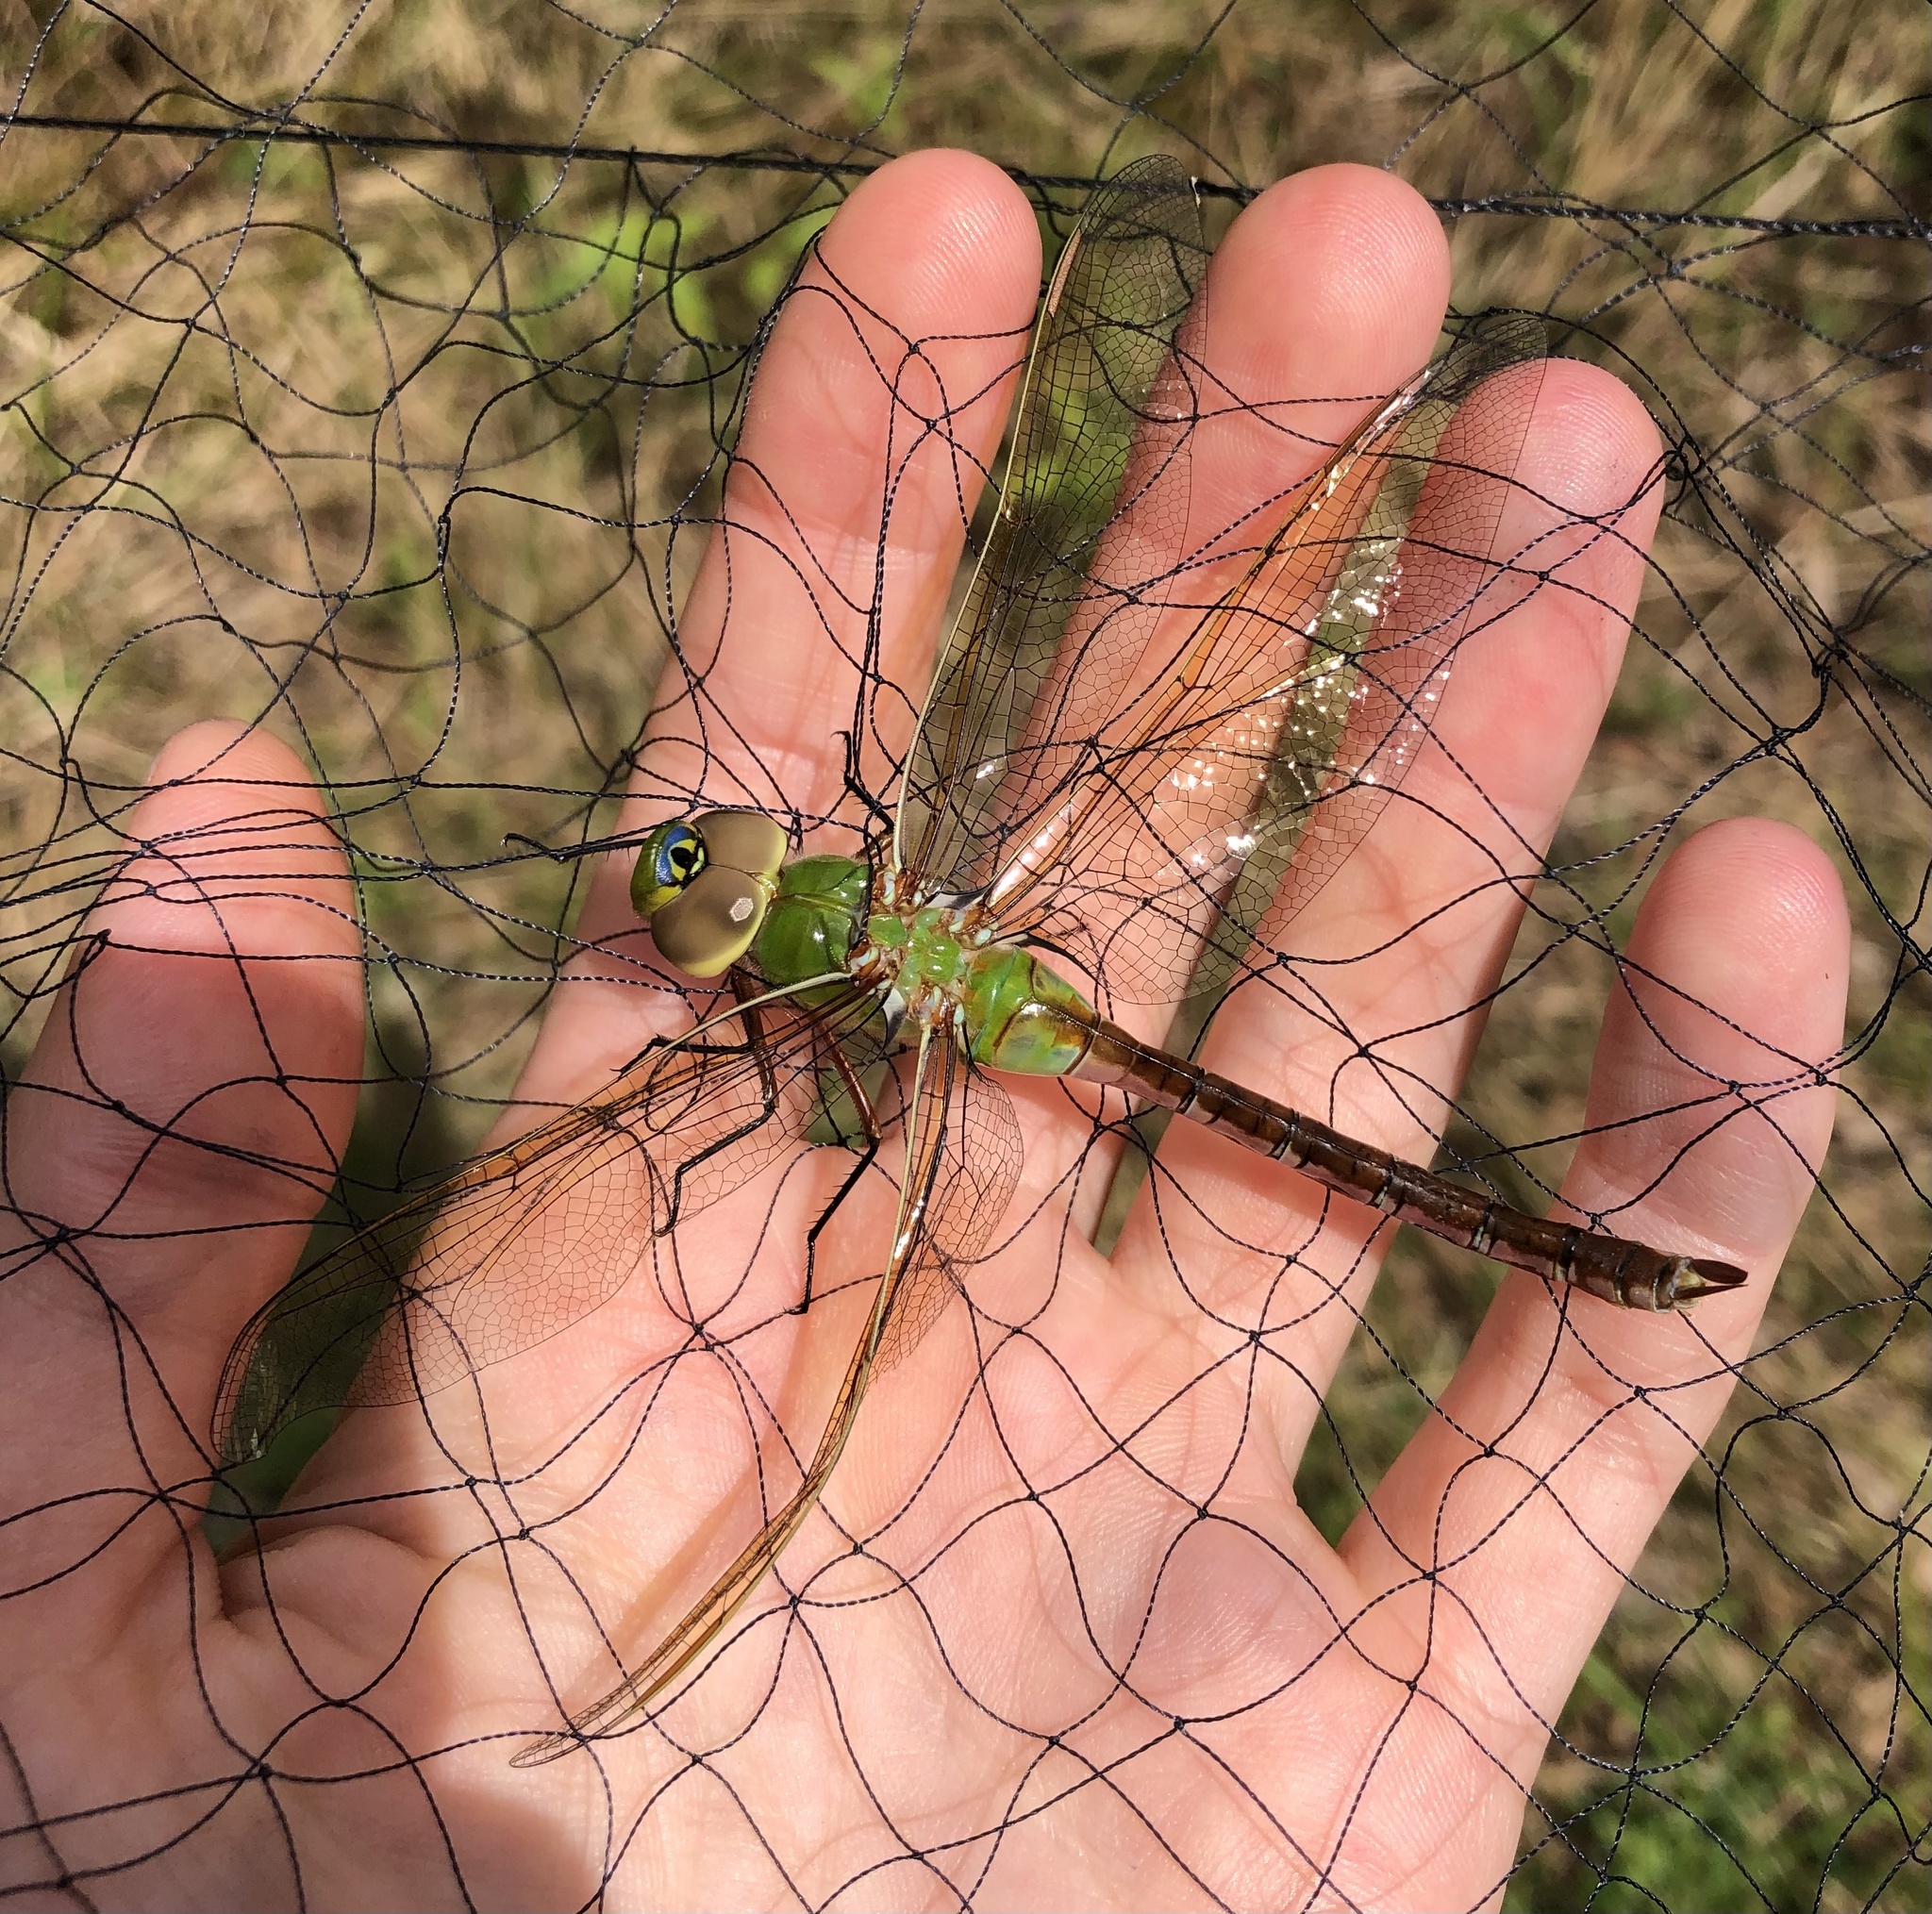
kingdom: Animalia
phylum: Arthropoda
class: Insecta
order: Odonata
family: Aeshnidae
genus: Anax
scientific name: Anax junius
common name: Common green darner
